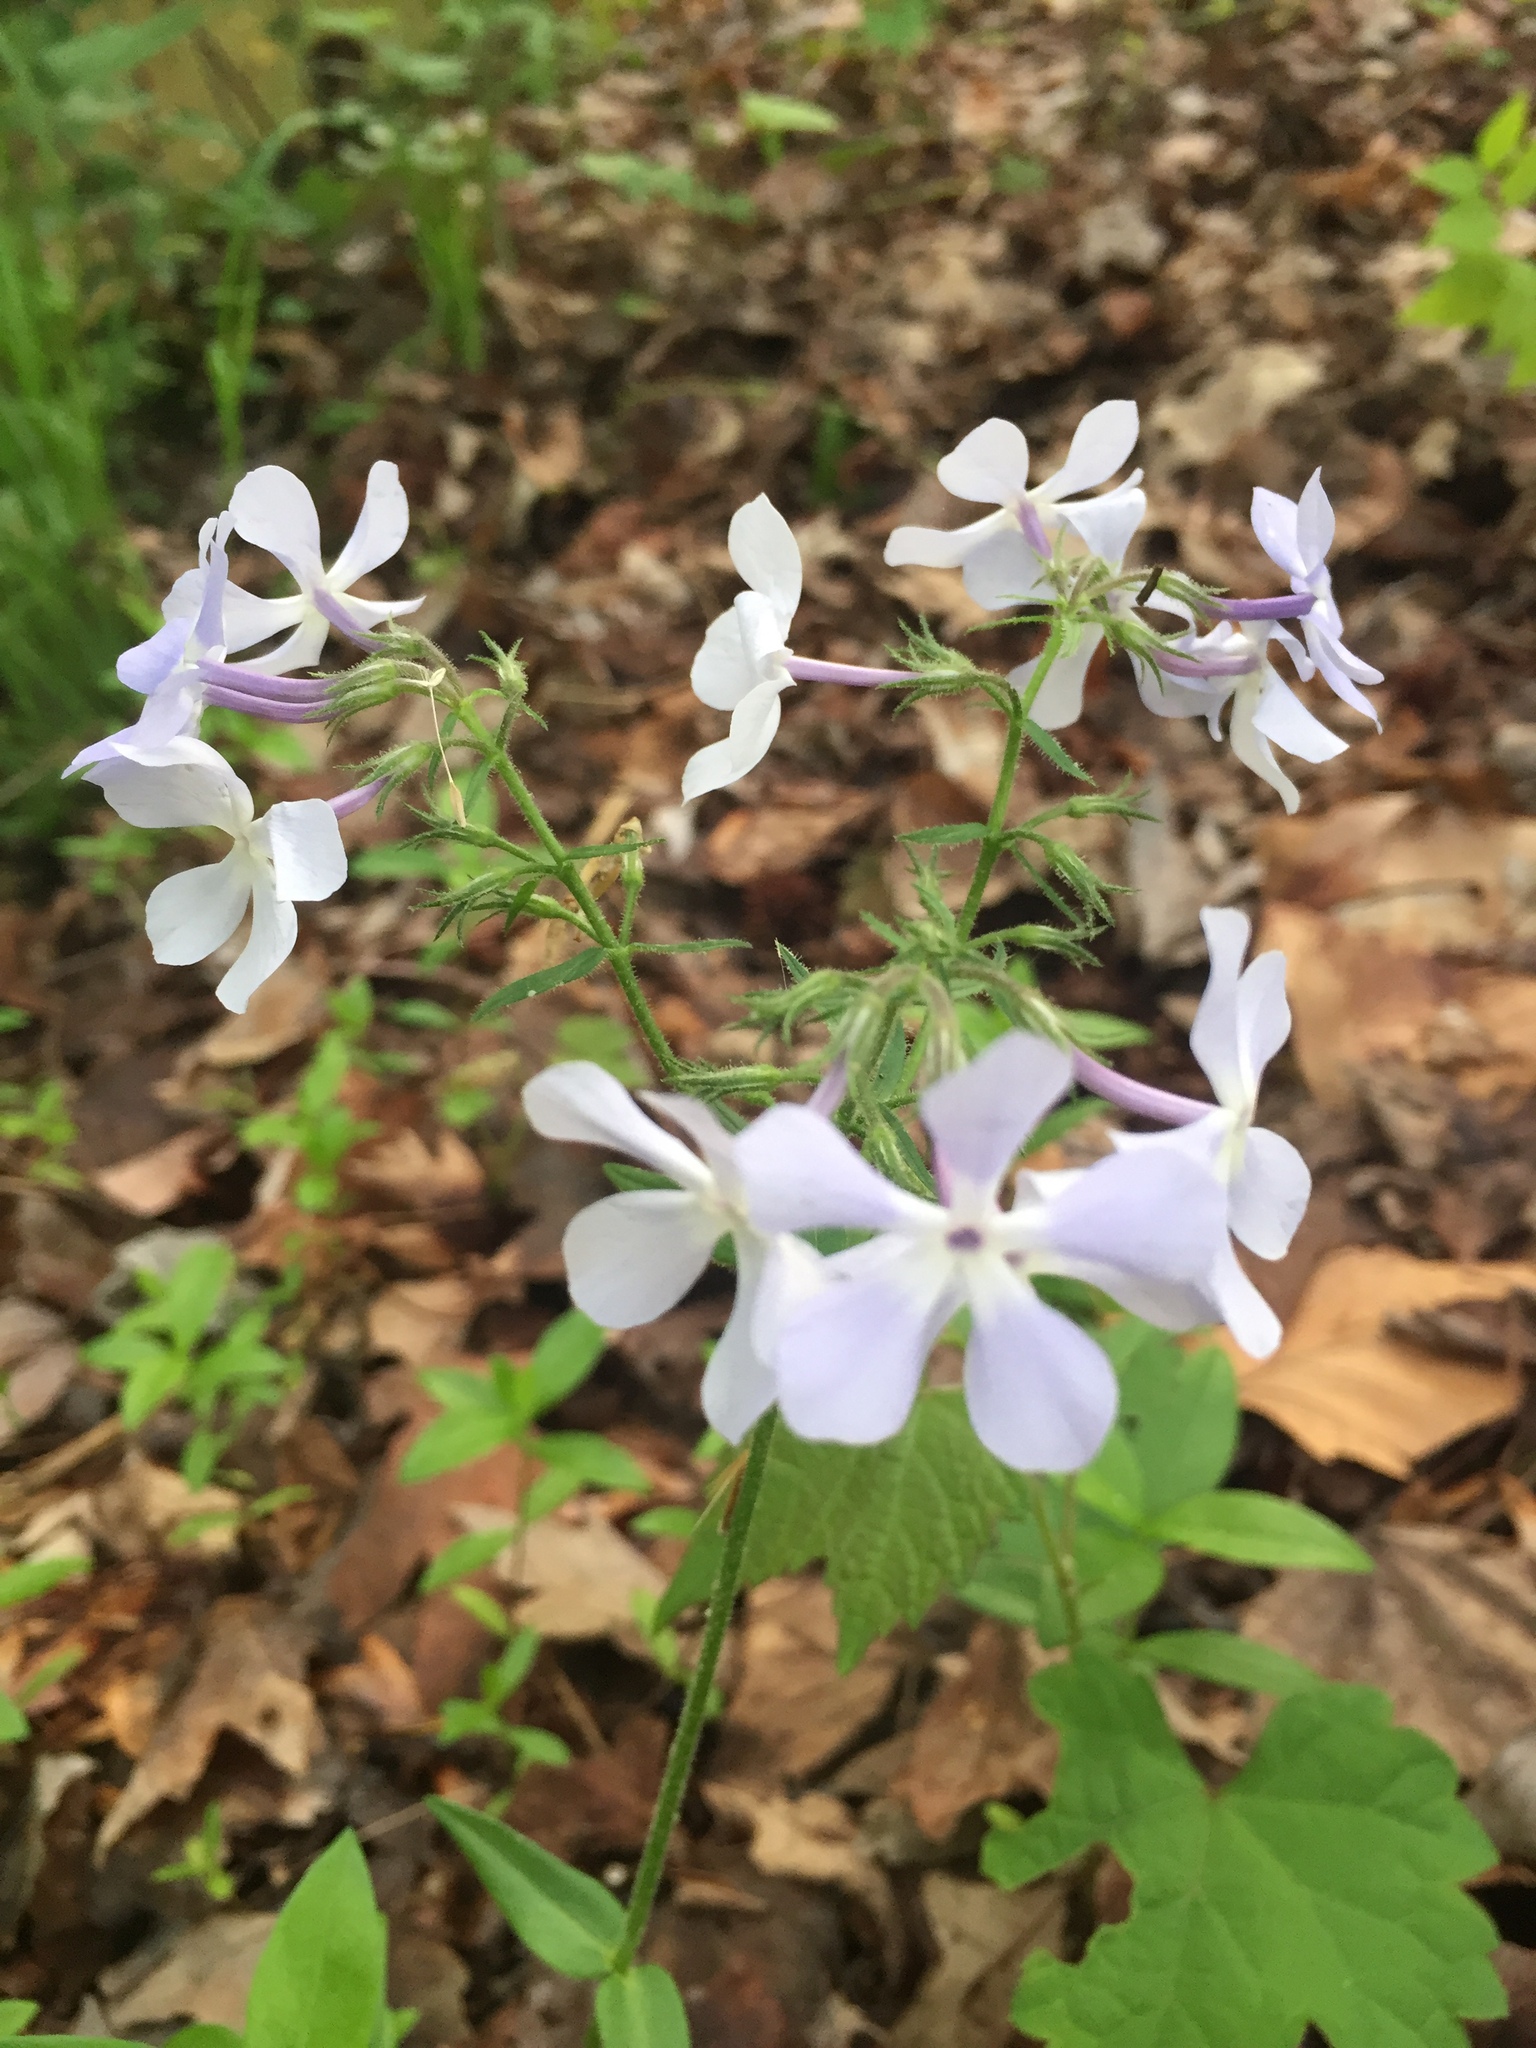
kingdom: Plantae
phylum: Tracheophyta
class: Magnoliopsida
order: Ericales
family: Polemoniaceae
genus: Phlox
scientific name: Phlox divaricata
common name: Blue phlox
